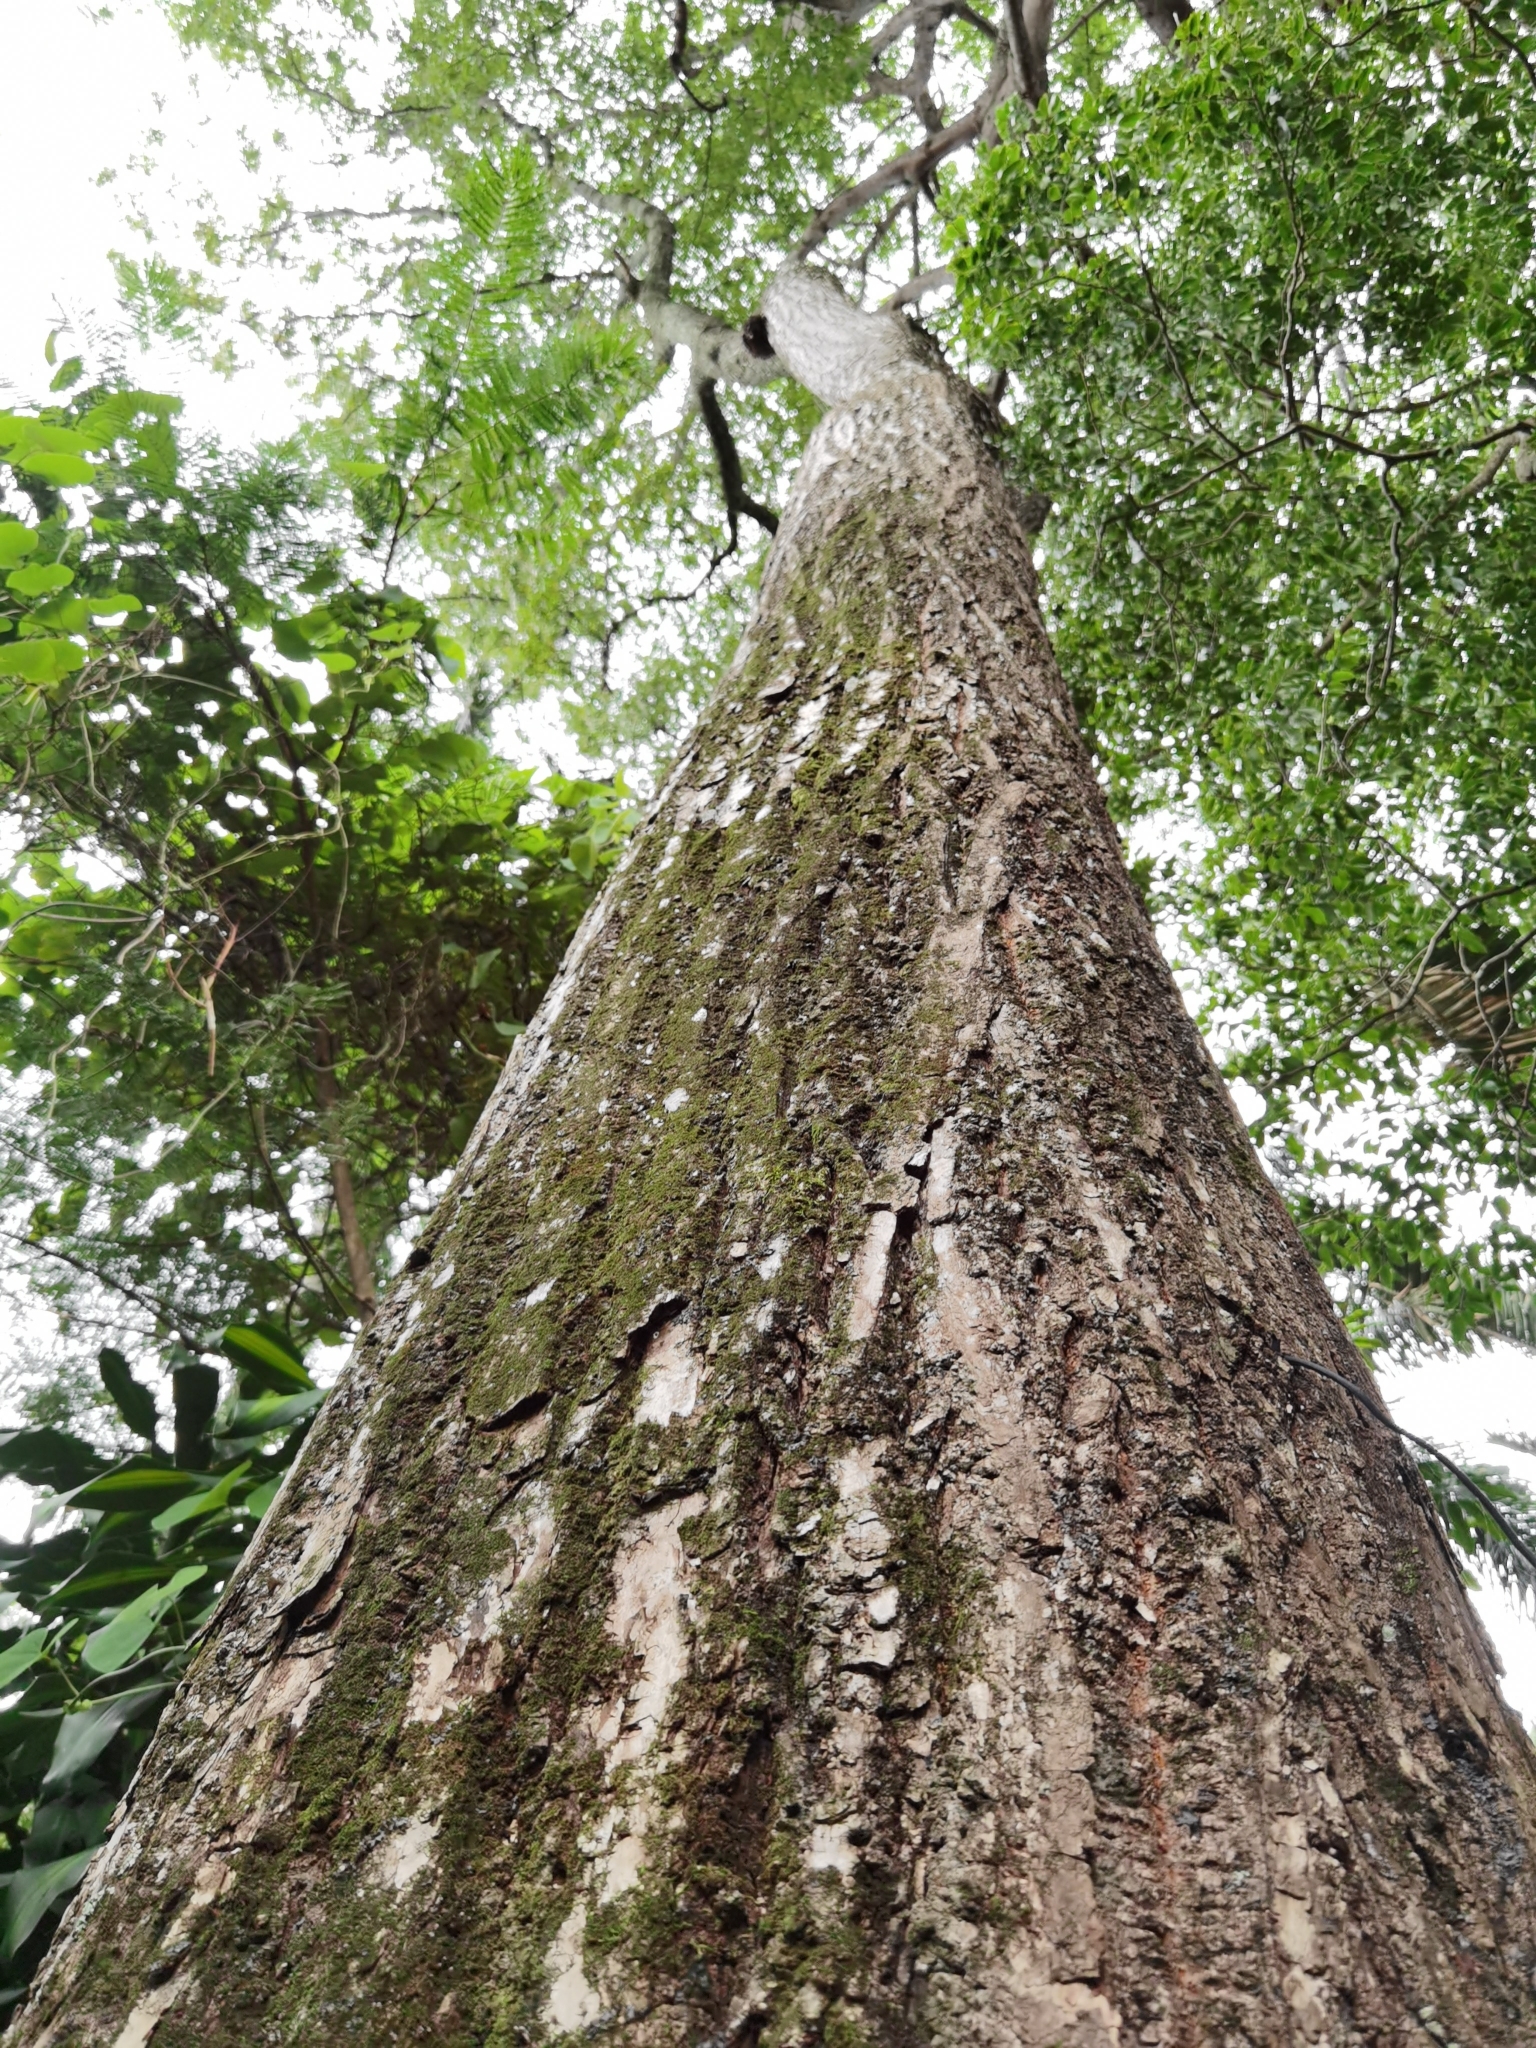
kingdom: Plantae
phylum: Tracheophyta
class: Magnoliopsida
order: Sapindales
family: Meliaceae
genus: Cedrela
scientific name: Cedrela odorata
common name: Red cedar
